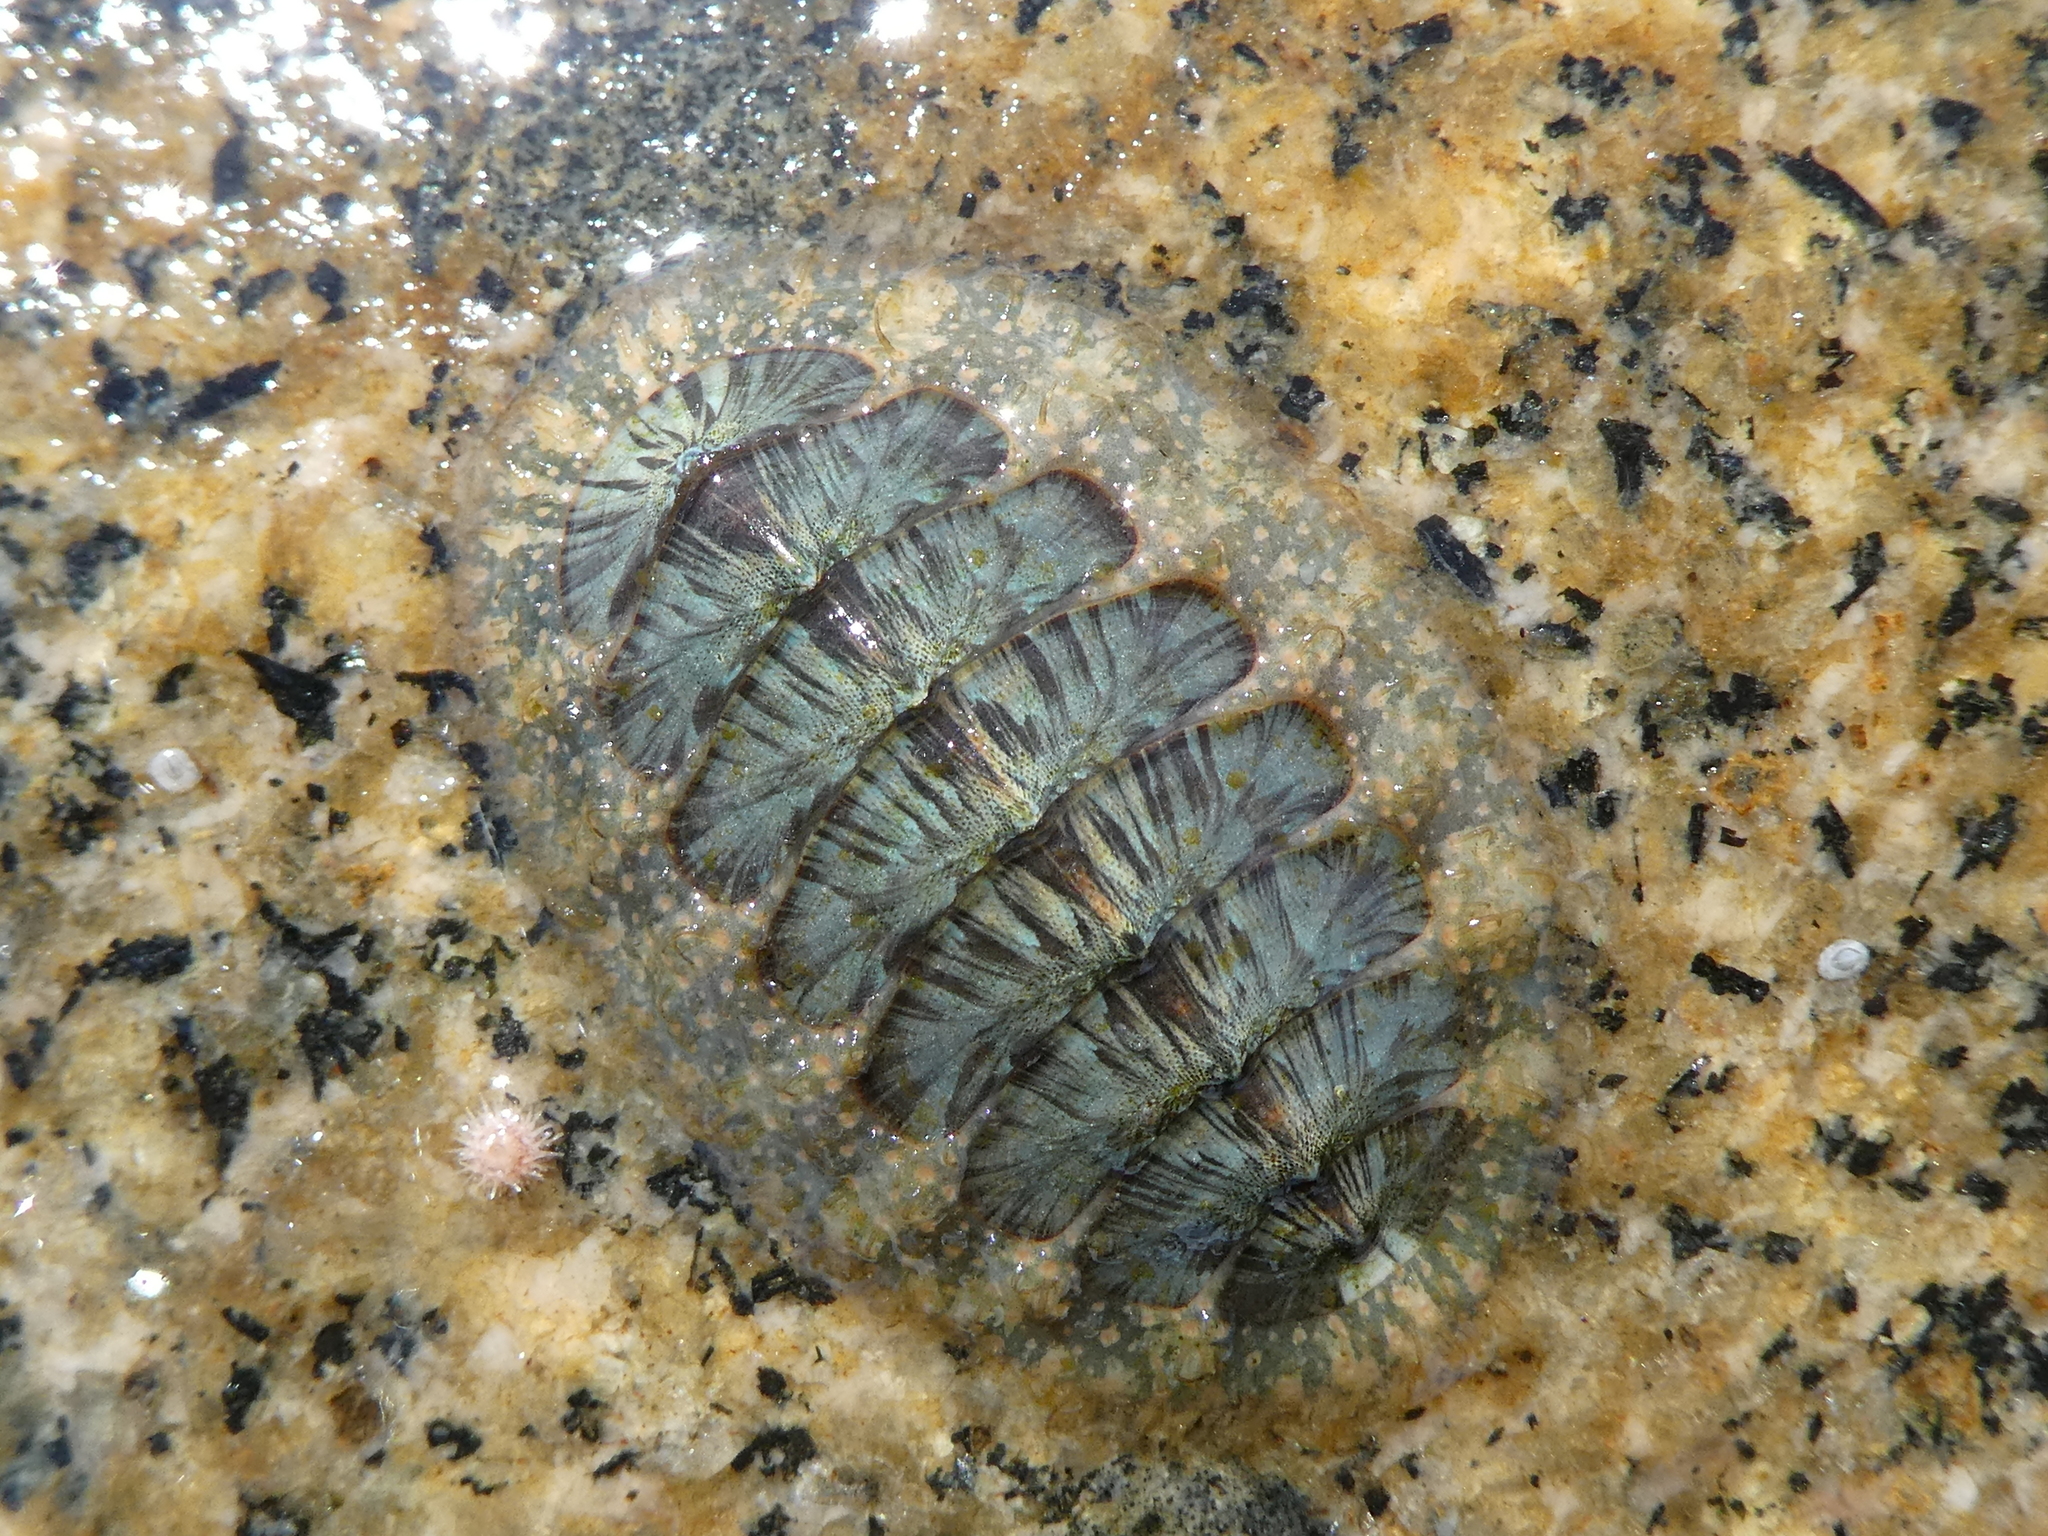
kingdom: Animalia
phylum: Mollusca
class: Polyplacophora
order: Chitonida
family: Mopaliidae
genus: Mopalia
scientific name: Mopalia lignosa
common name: Woody chiton
